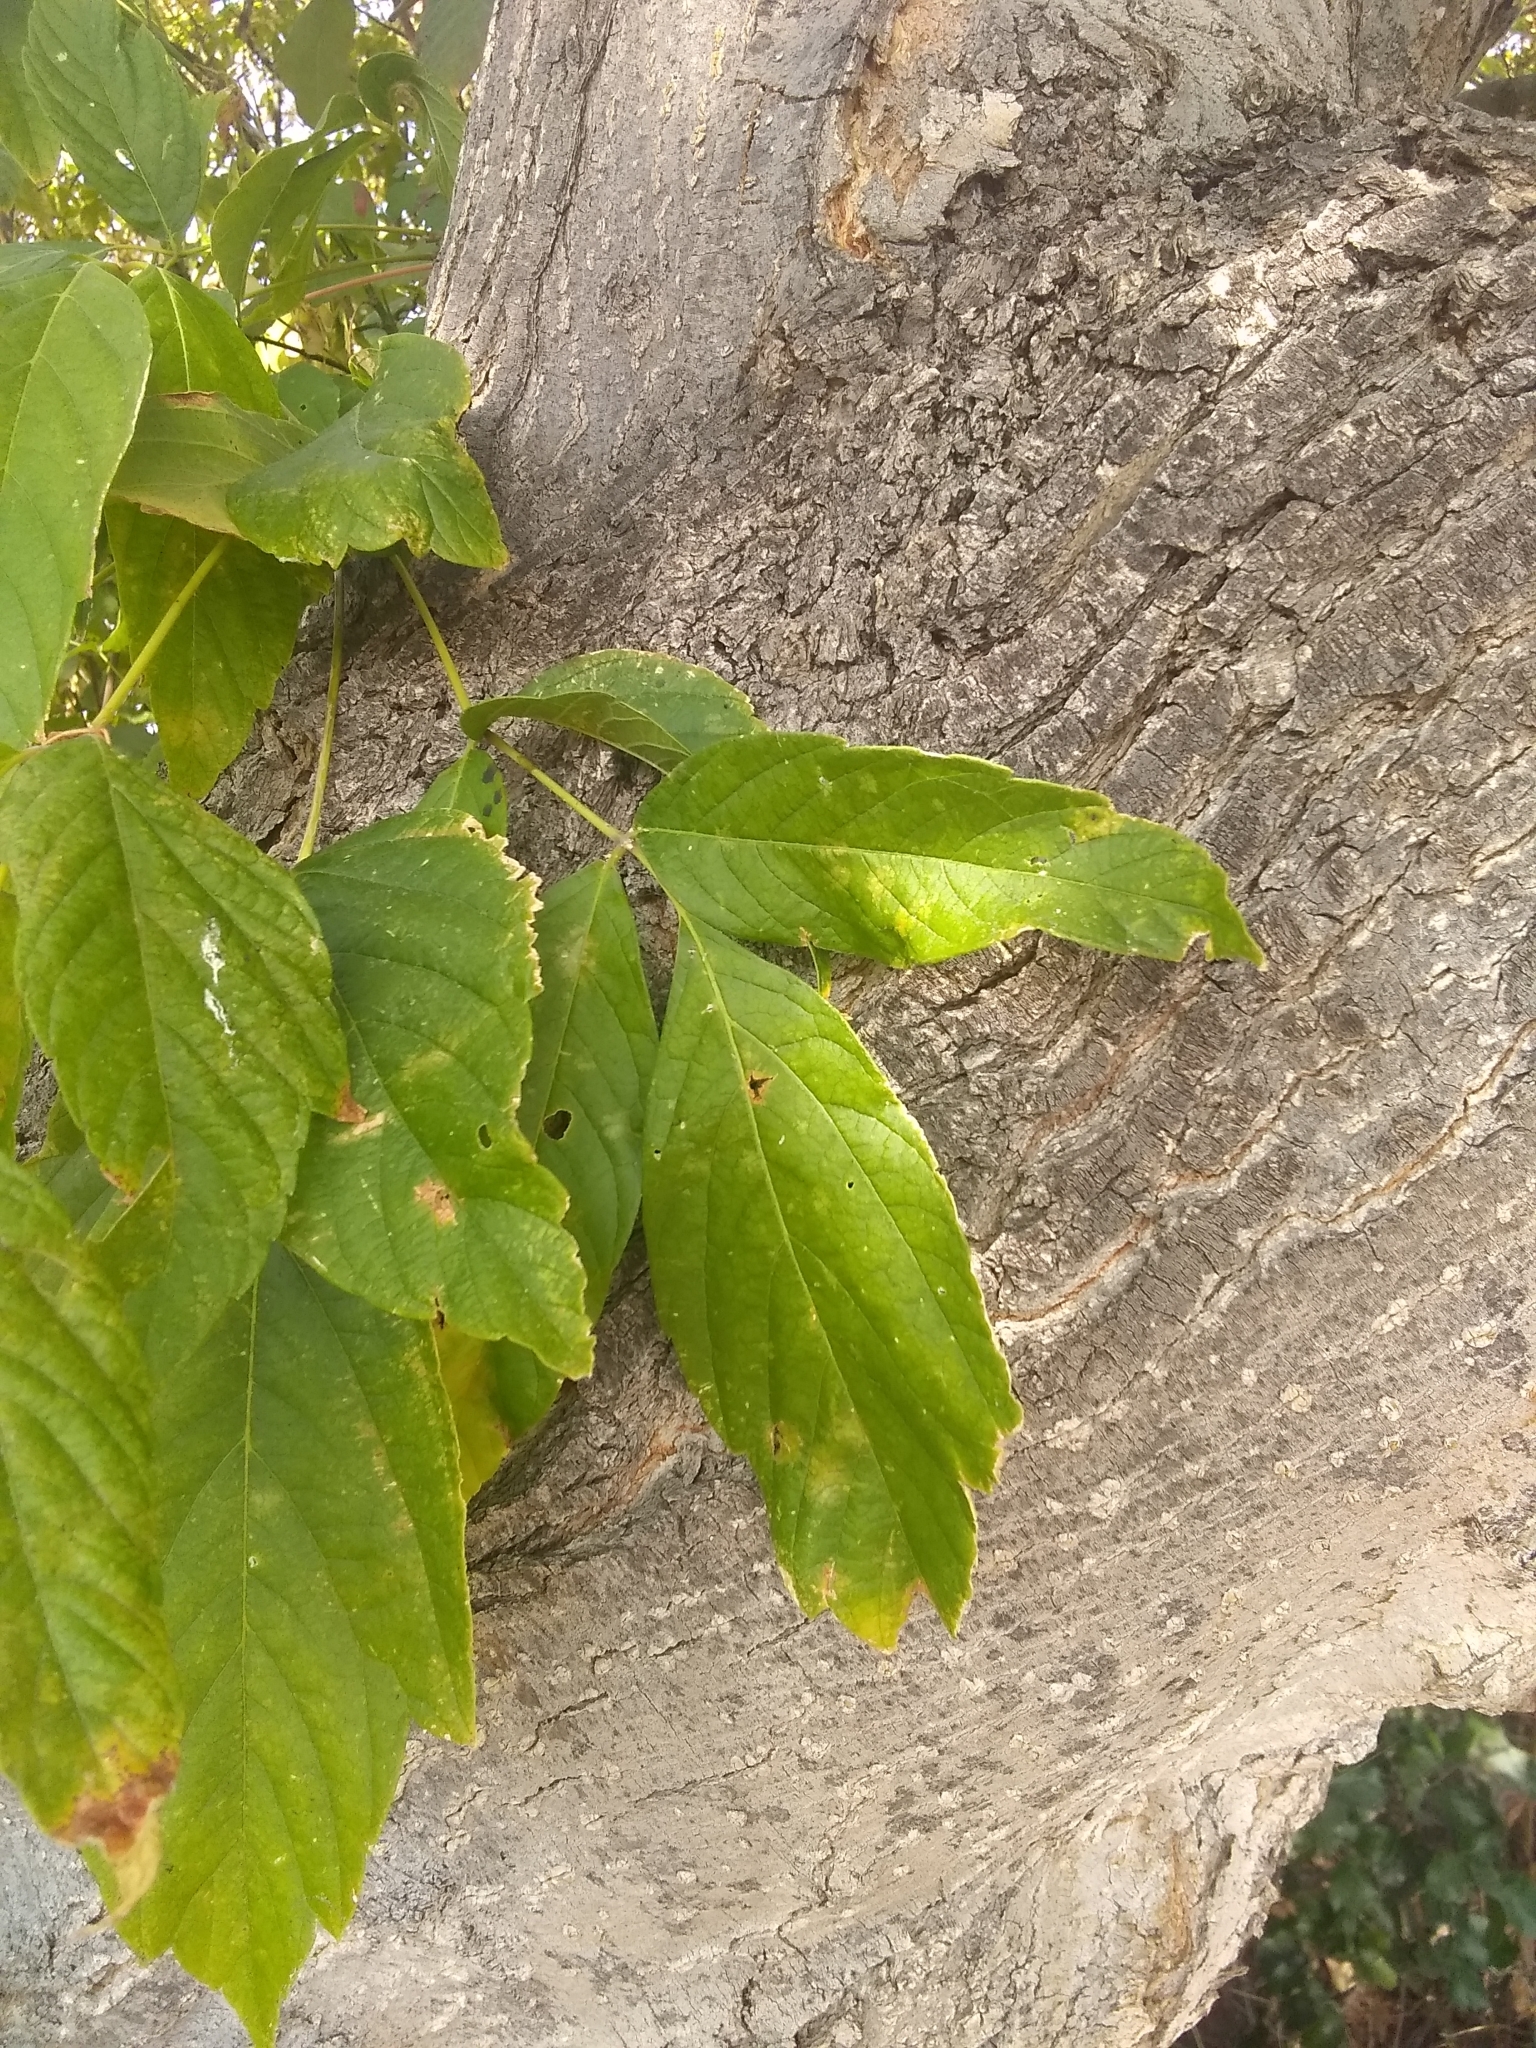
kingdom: Plantae
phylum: Tracheophyta
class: Magnoliopsida
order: Sapindales
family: Sapindaceae
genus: Acer
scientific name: Acer negundo
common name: Ashleaf maple
